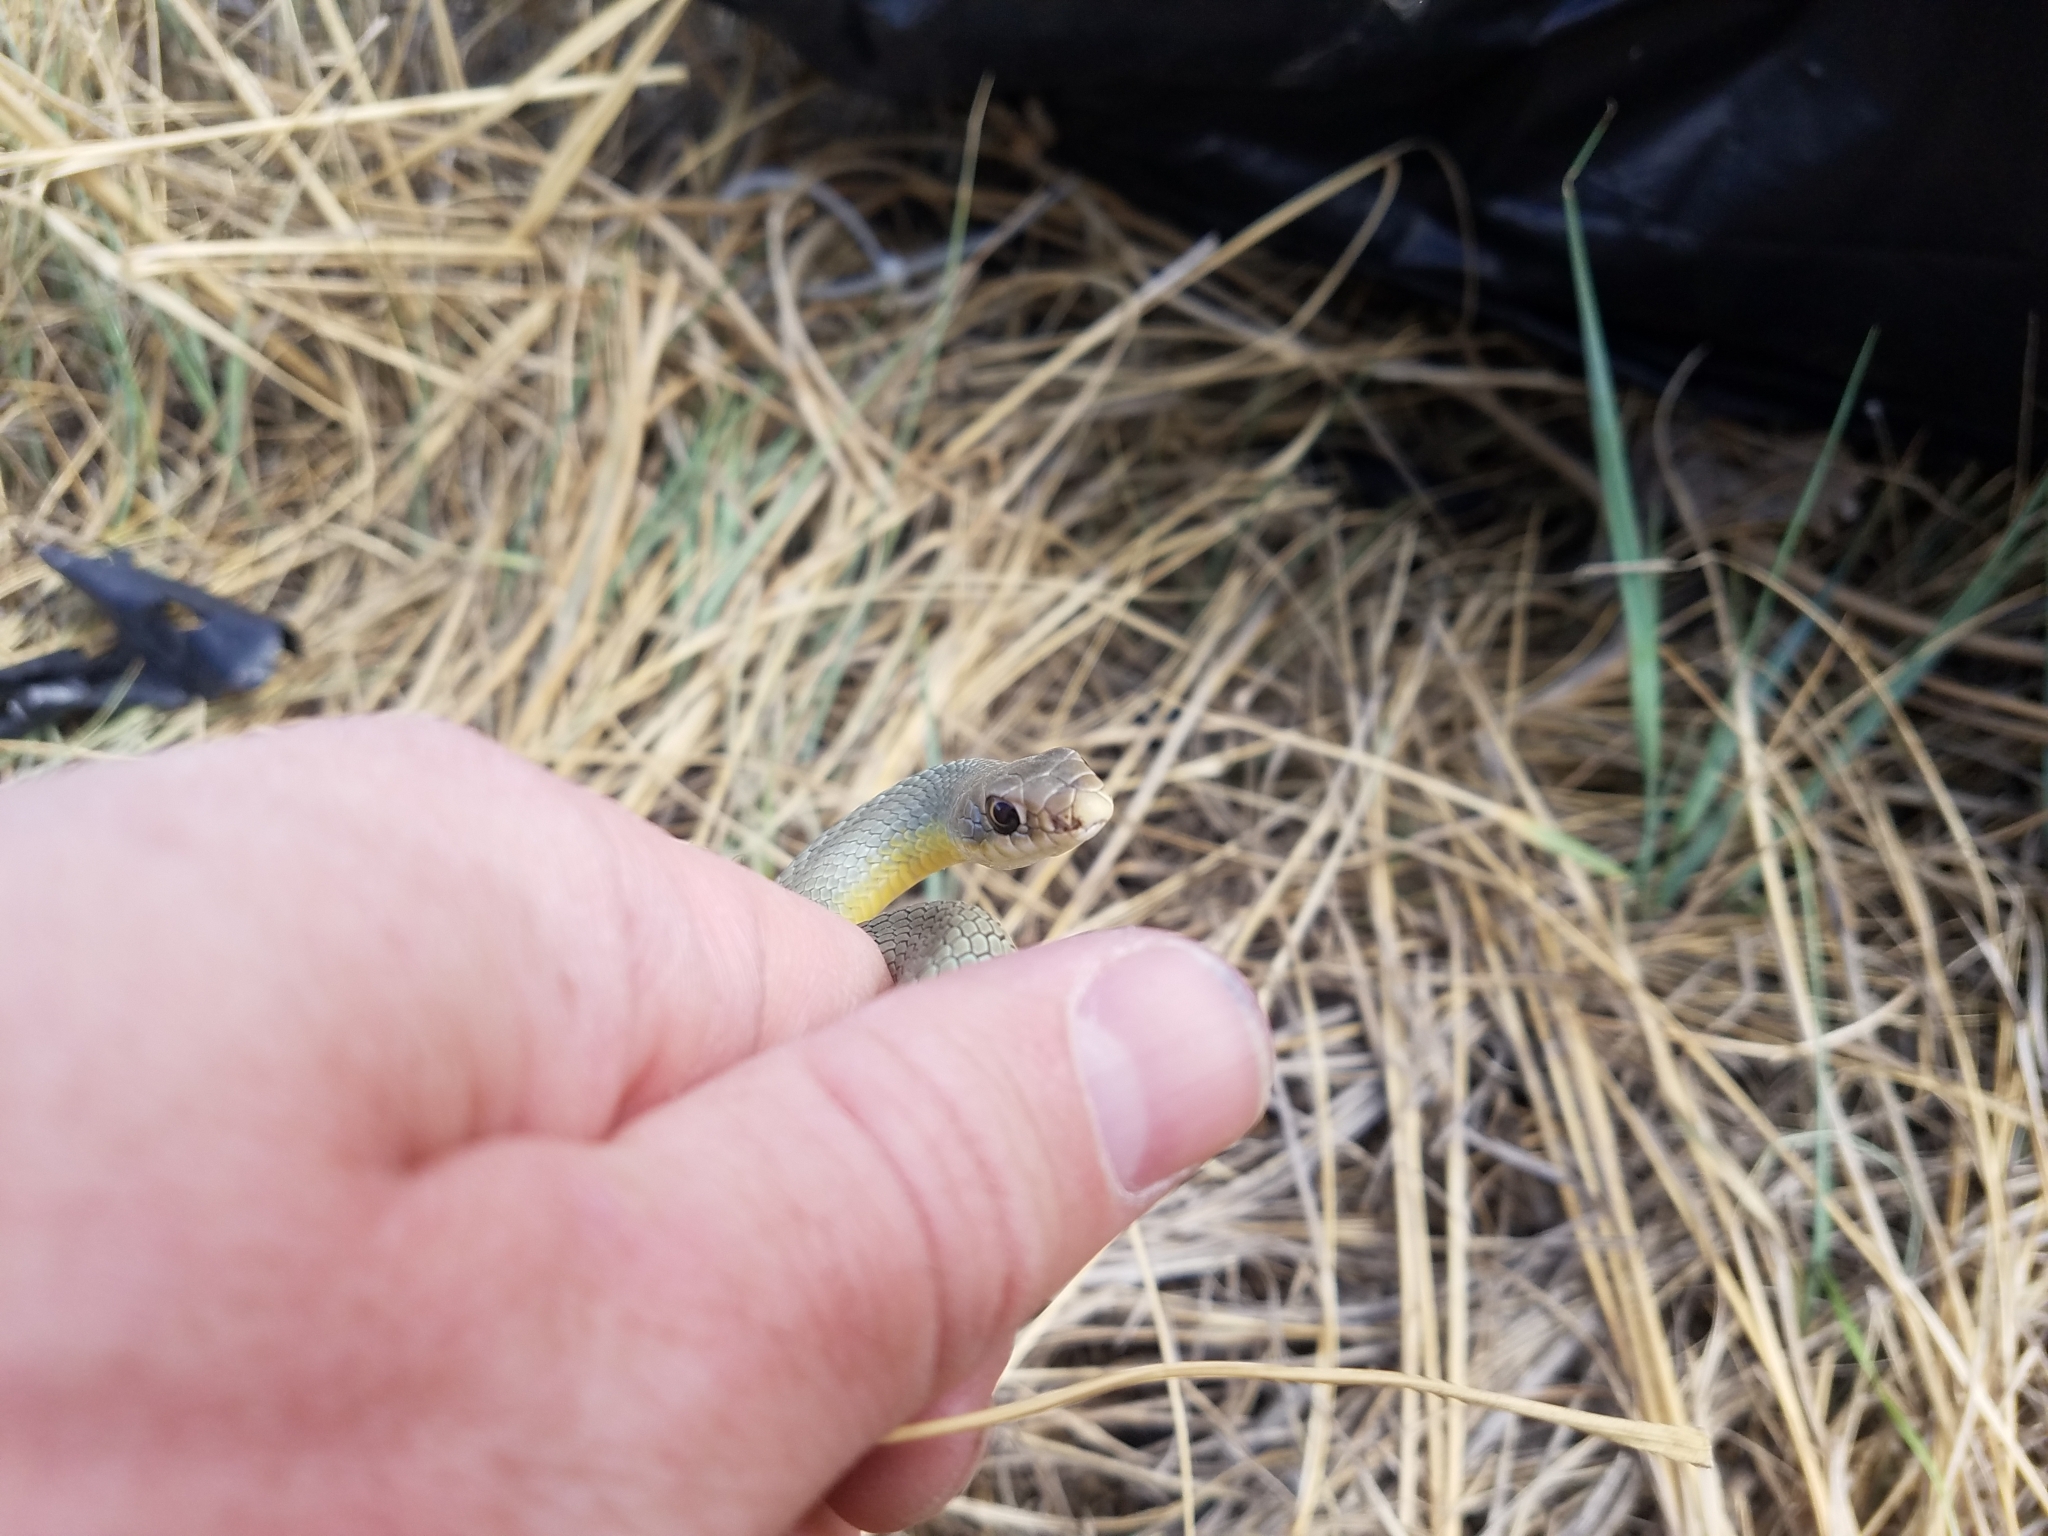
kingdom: Animalia
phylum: Chordata
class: Squamata
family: Colubridae
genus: Coluber
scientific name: Coluber constrictor
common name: Eastern racer
